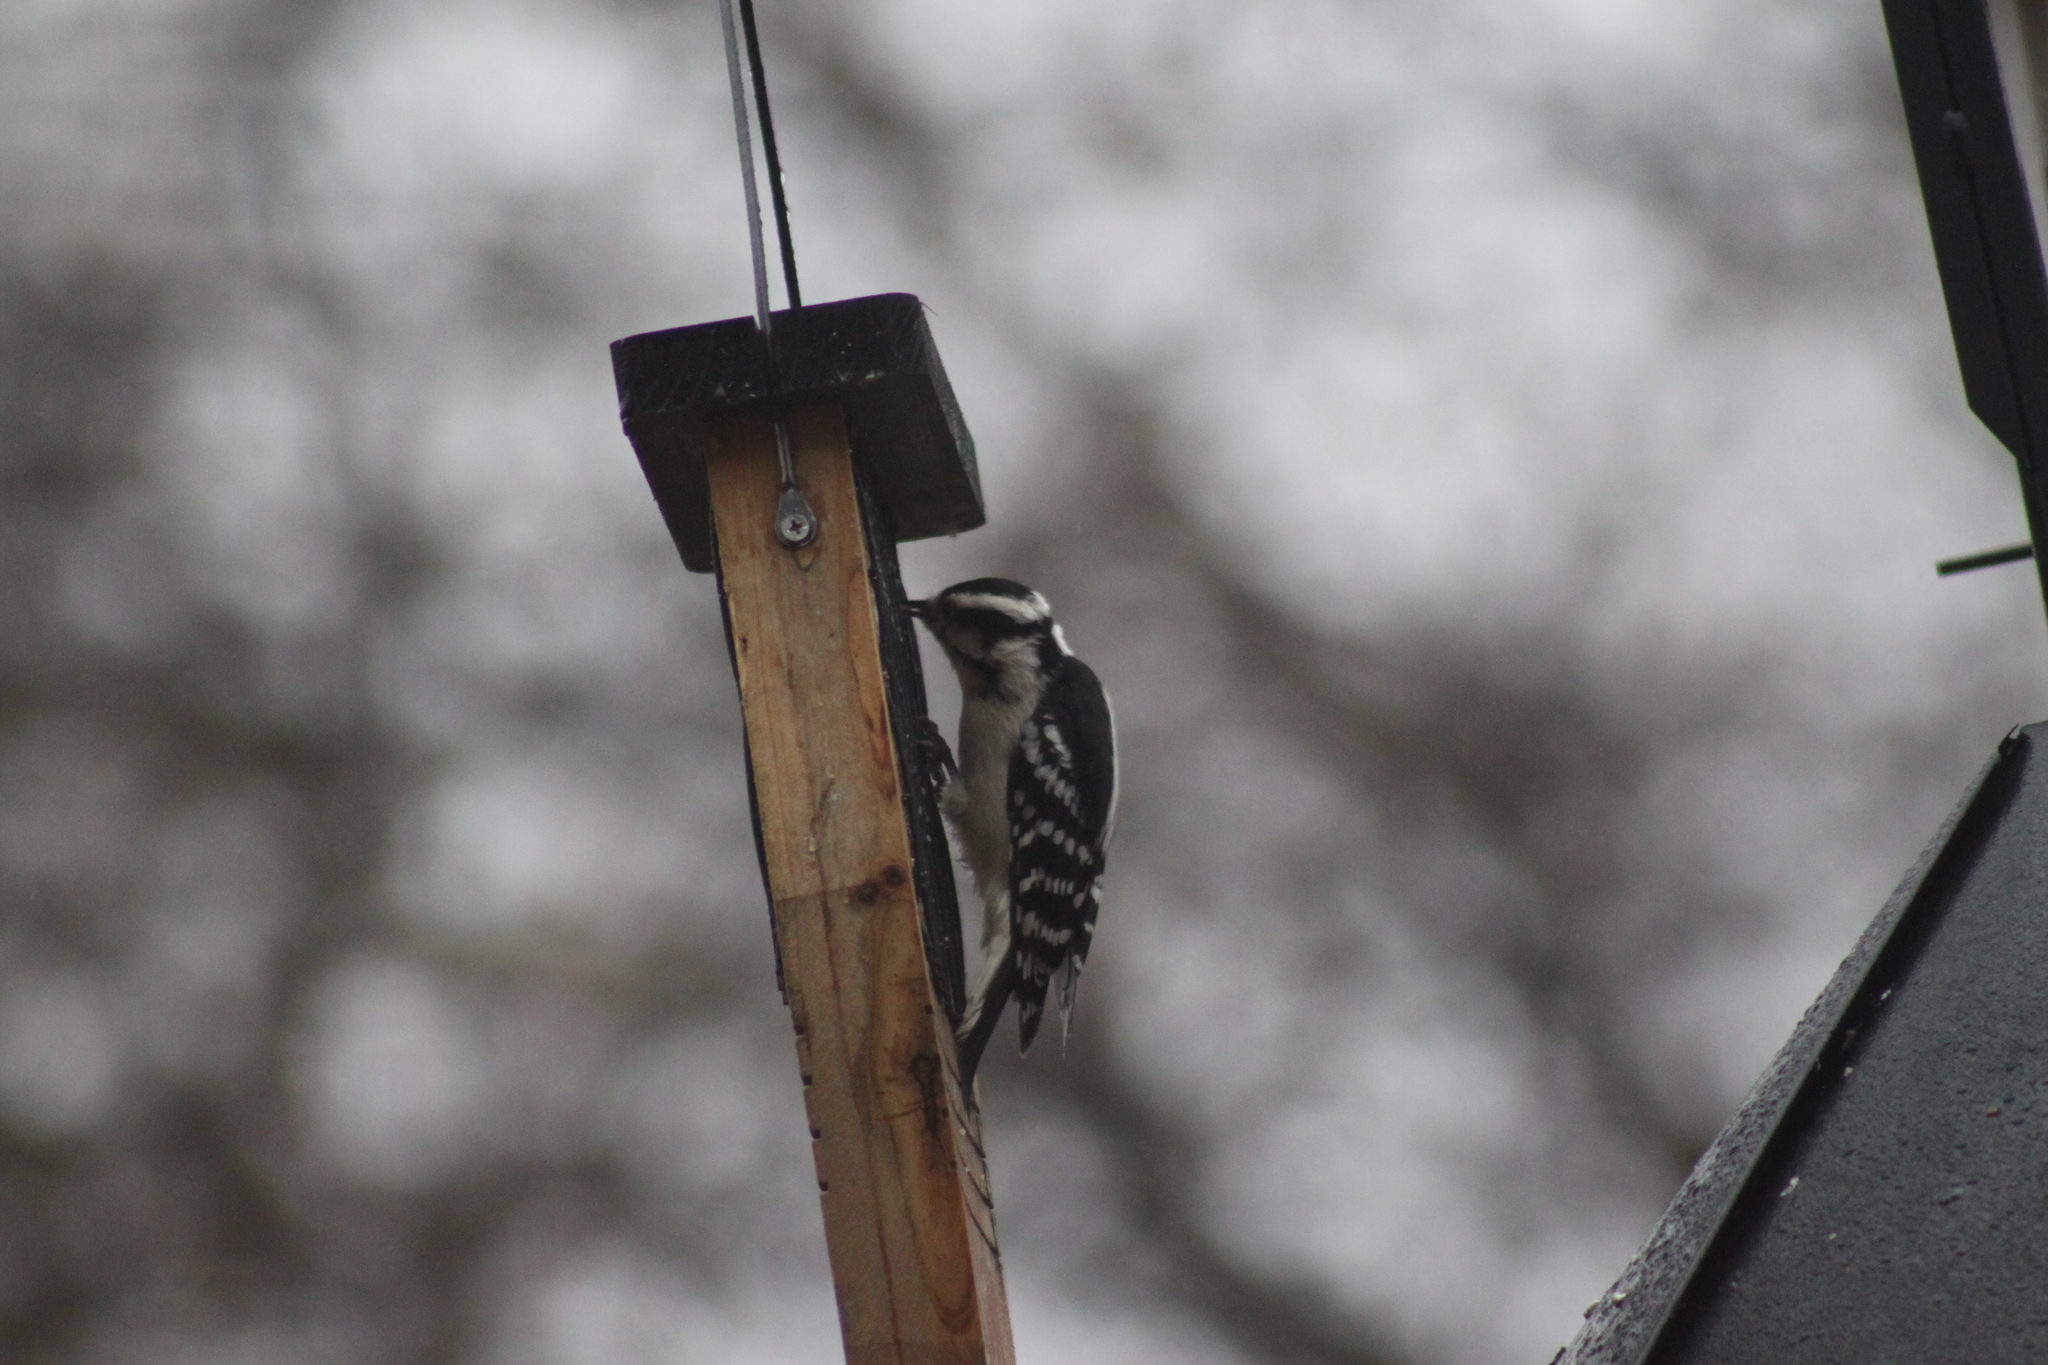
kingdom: Animalia
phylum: Chordata
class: Aves
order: Piciformes
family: Picidae
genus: Dryobates
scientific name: Dryobates pubescens
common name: Downy woodpecker
